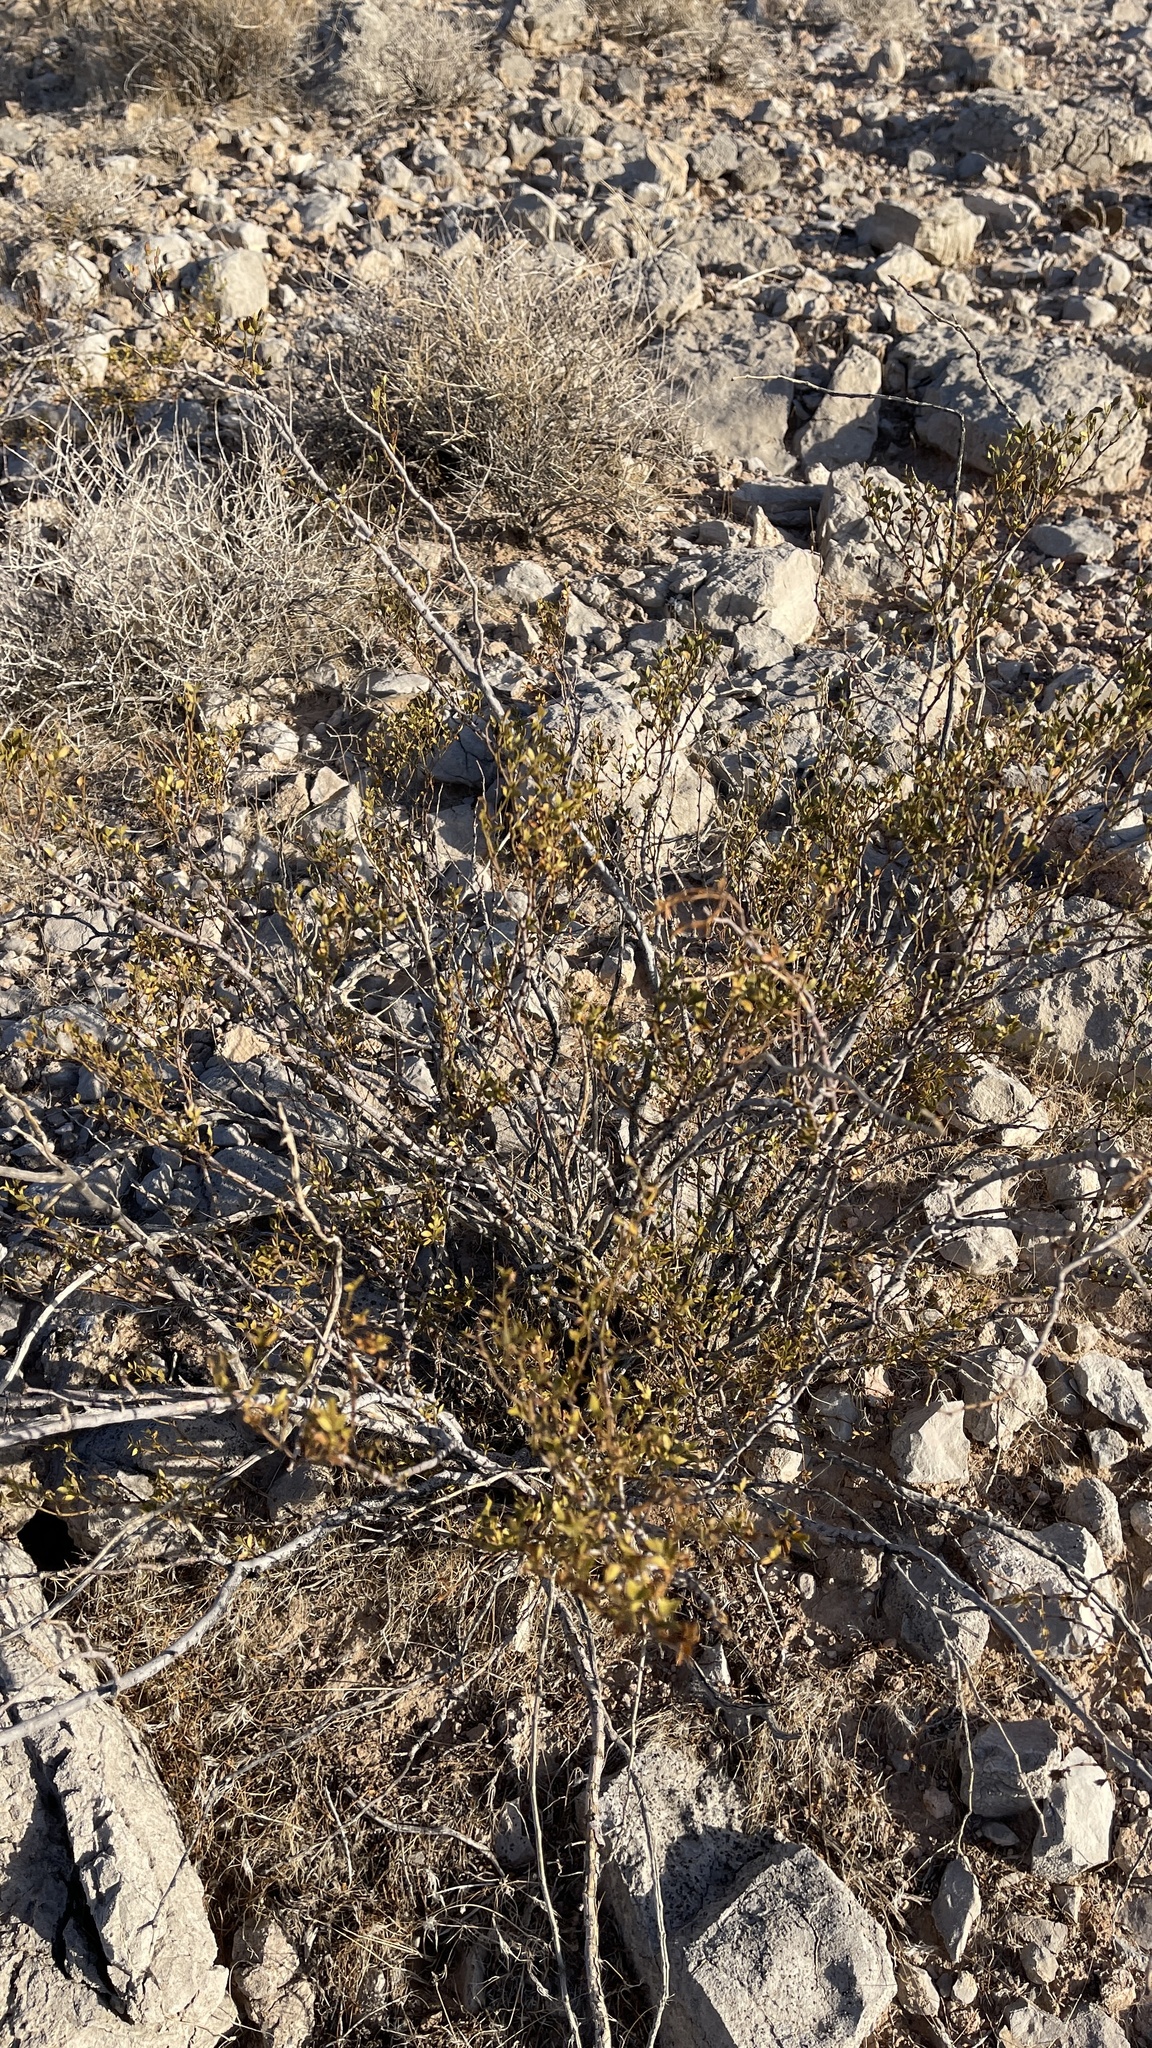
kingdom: Plantae
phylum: Tracheophyta
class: Magnoliopsida
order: Zygophyllales
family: Zygophyllaceae
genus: Larrea
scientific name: Larrea tridentata
